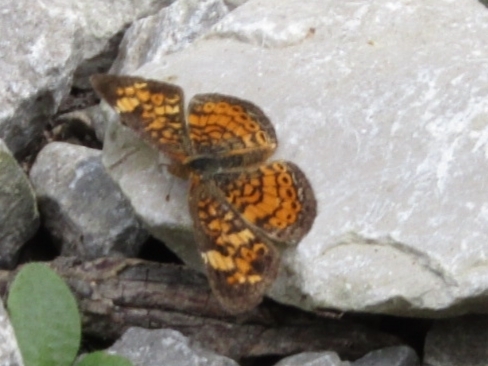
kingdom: Animalia
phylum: Arthropoda
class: Insecta
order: Lepidoptera
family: Nymphalidae
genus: Phyciodes
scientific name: Phyciodes tharos
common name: Pearl crescent
